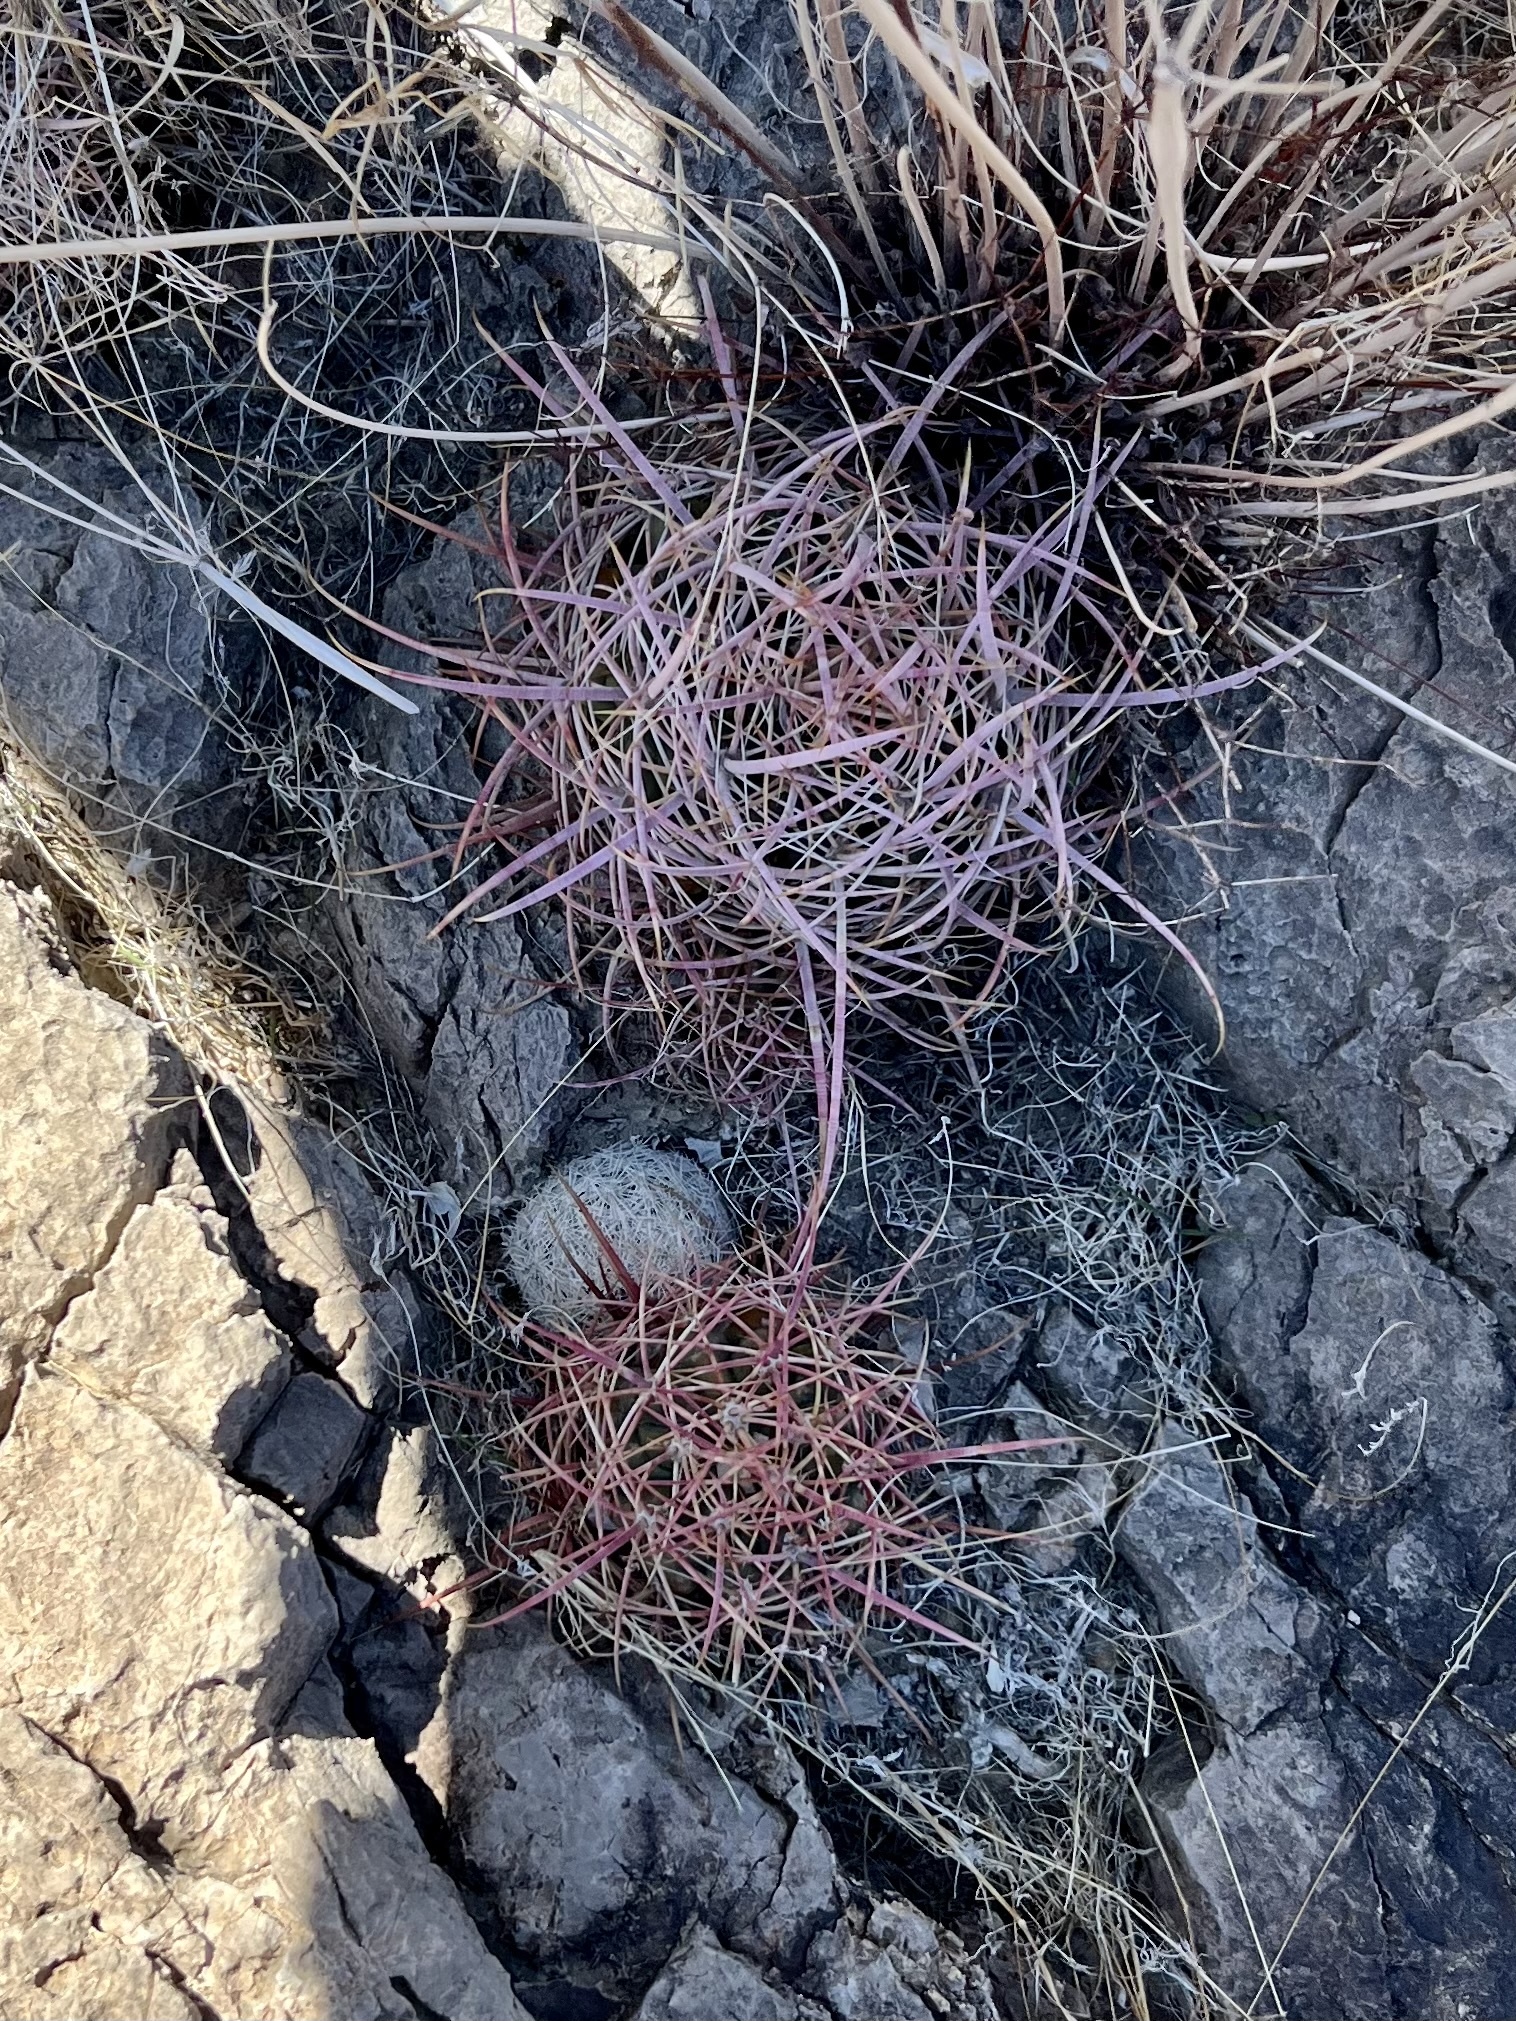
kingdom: Plantae
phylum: Tracheophyta
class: Magnoliopsida
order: Caryophyllales
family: Cactaceae
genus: Ferocactus
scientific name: Ferocactus cylindraceus
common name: California barrel cactus
